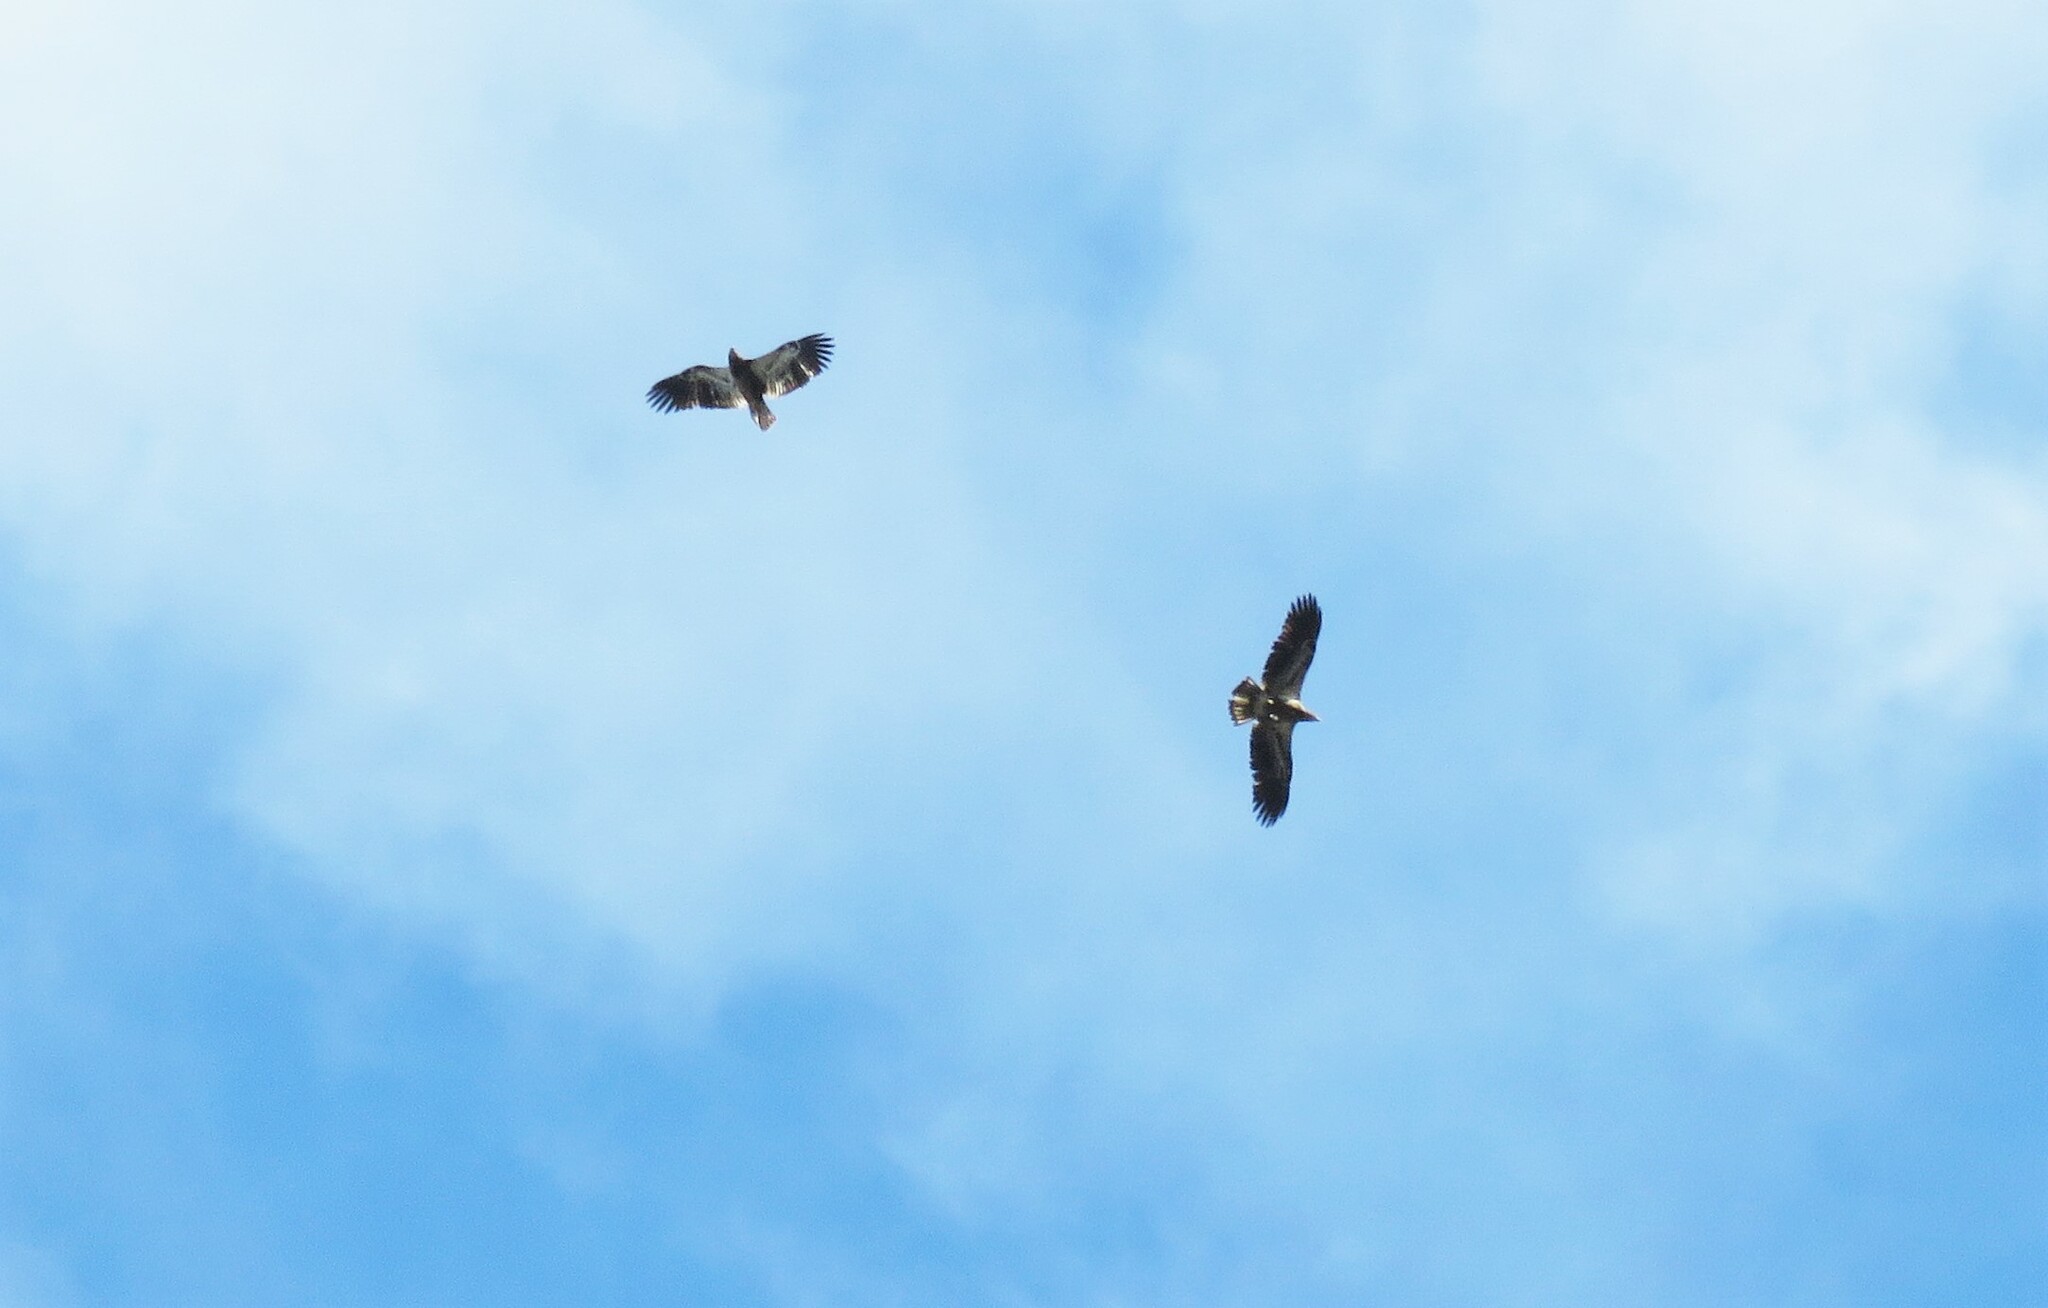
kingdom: Animalia
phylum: Chordata
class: Aves
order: Accipitriformes
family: Accipitridae
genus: Haliaeetus
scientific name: Haliaeetus leucocephalus
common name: Bald eagle
